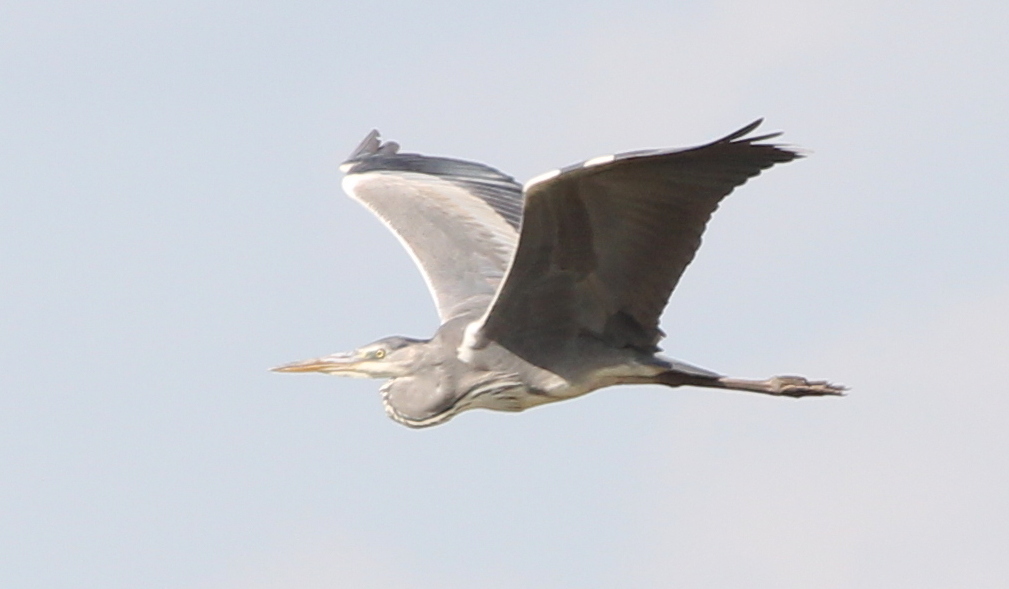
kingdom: Animalia
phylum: Chordata
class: Aves
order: Pelecaniformes
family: Ardeidae
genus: Ardea
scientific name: Ardea cinerea
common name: Grey heron
